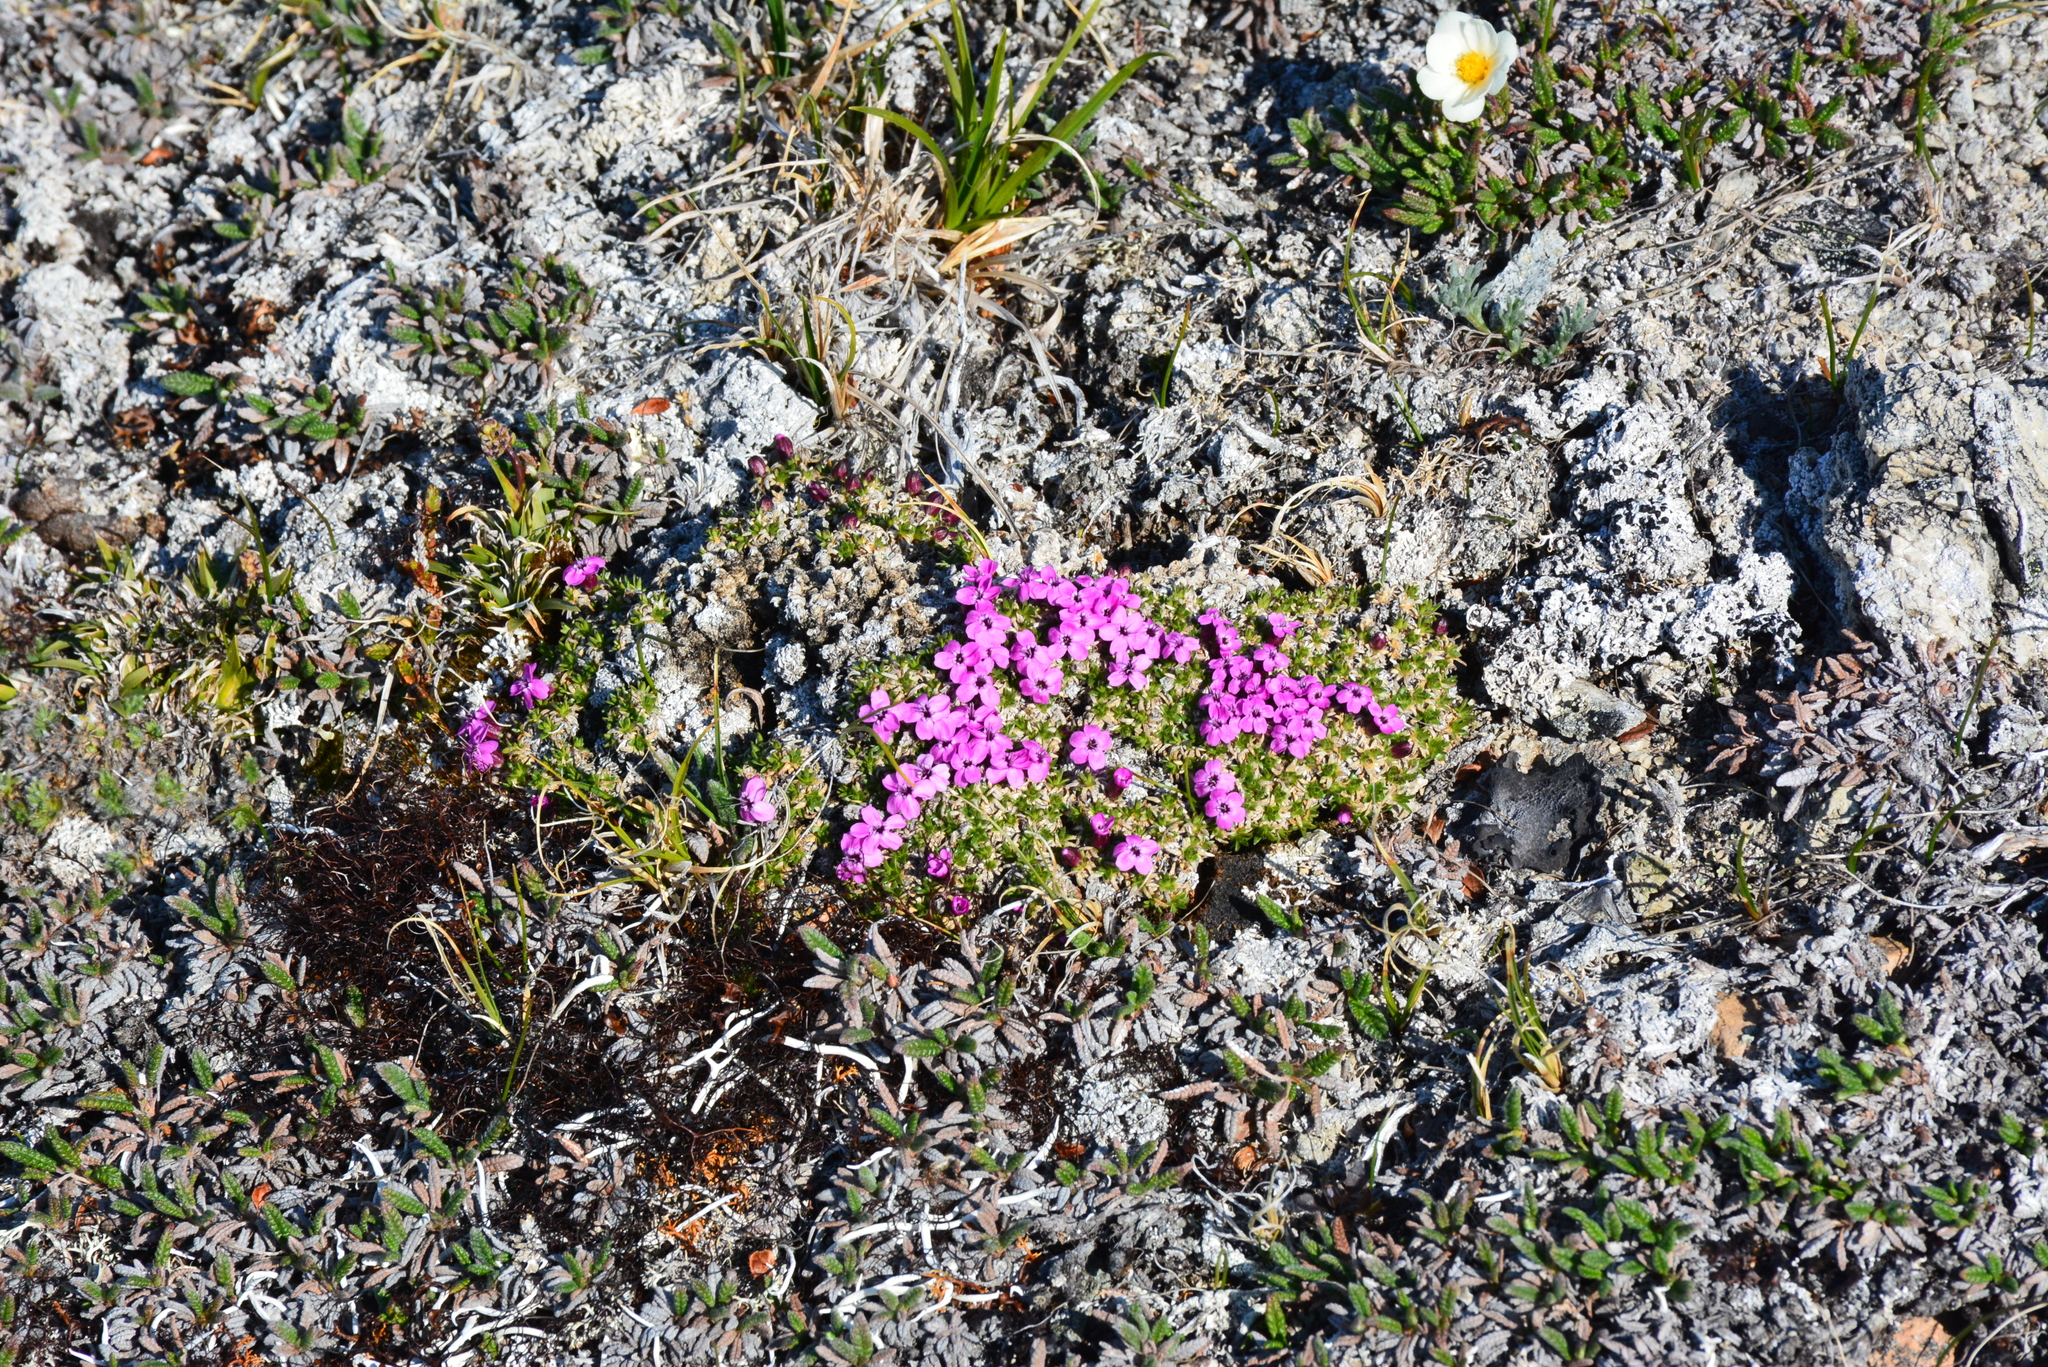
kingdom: Plantae
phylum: Tracheophyta
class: Magnoliopsida
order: Caryophyllales
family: Caryophyllaceae
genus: Silene
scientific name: Silene acaulis
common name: Moss campion
